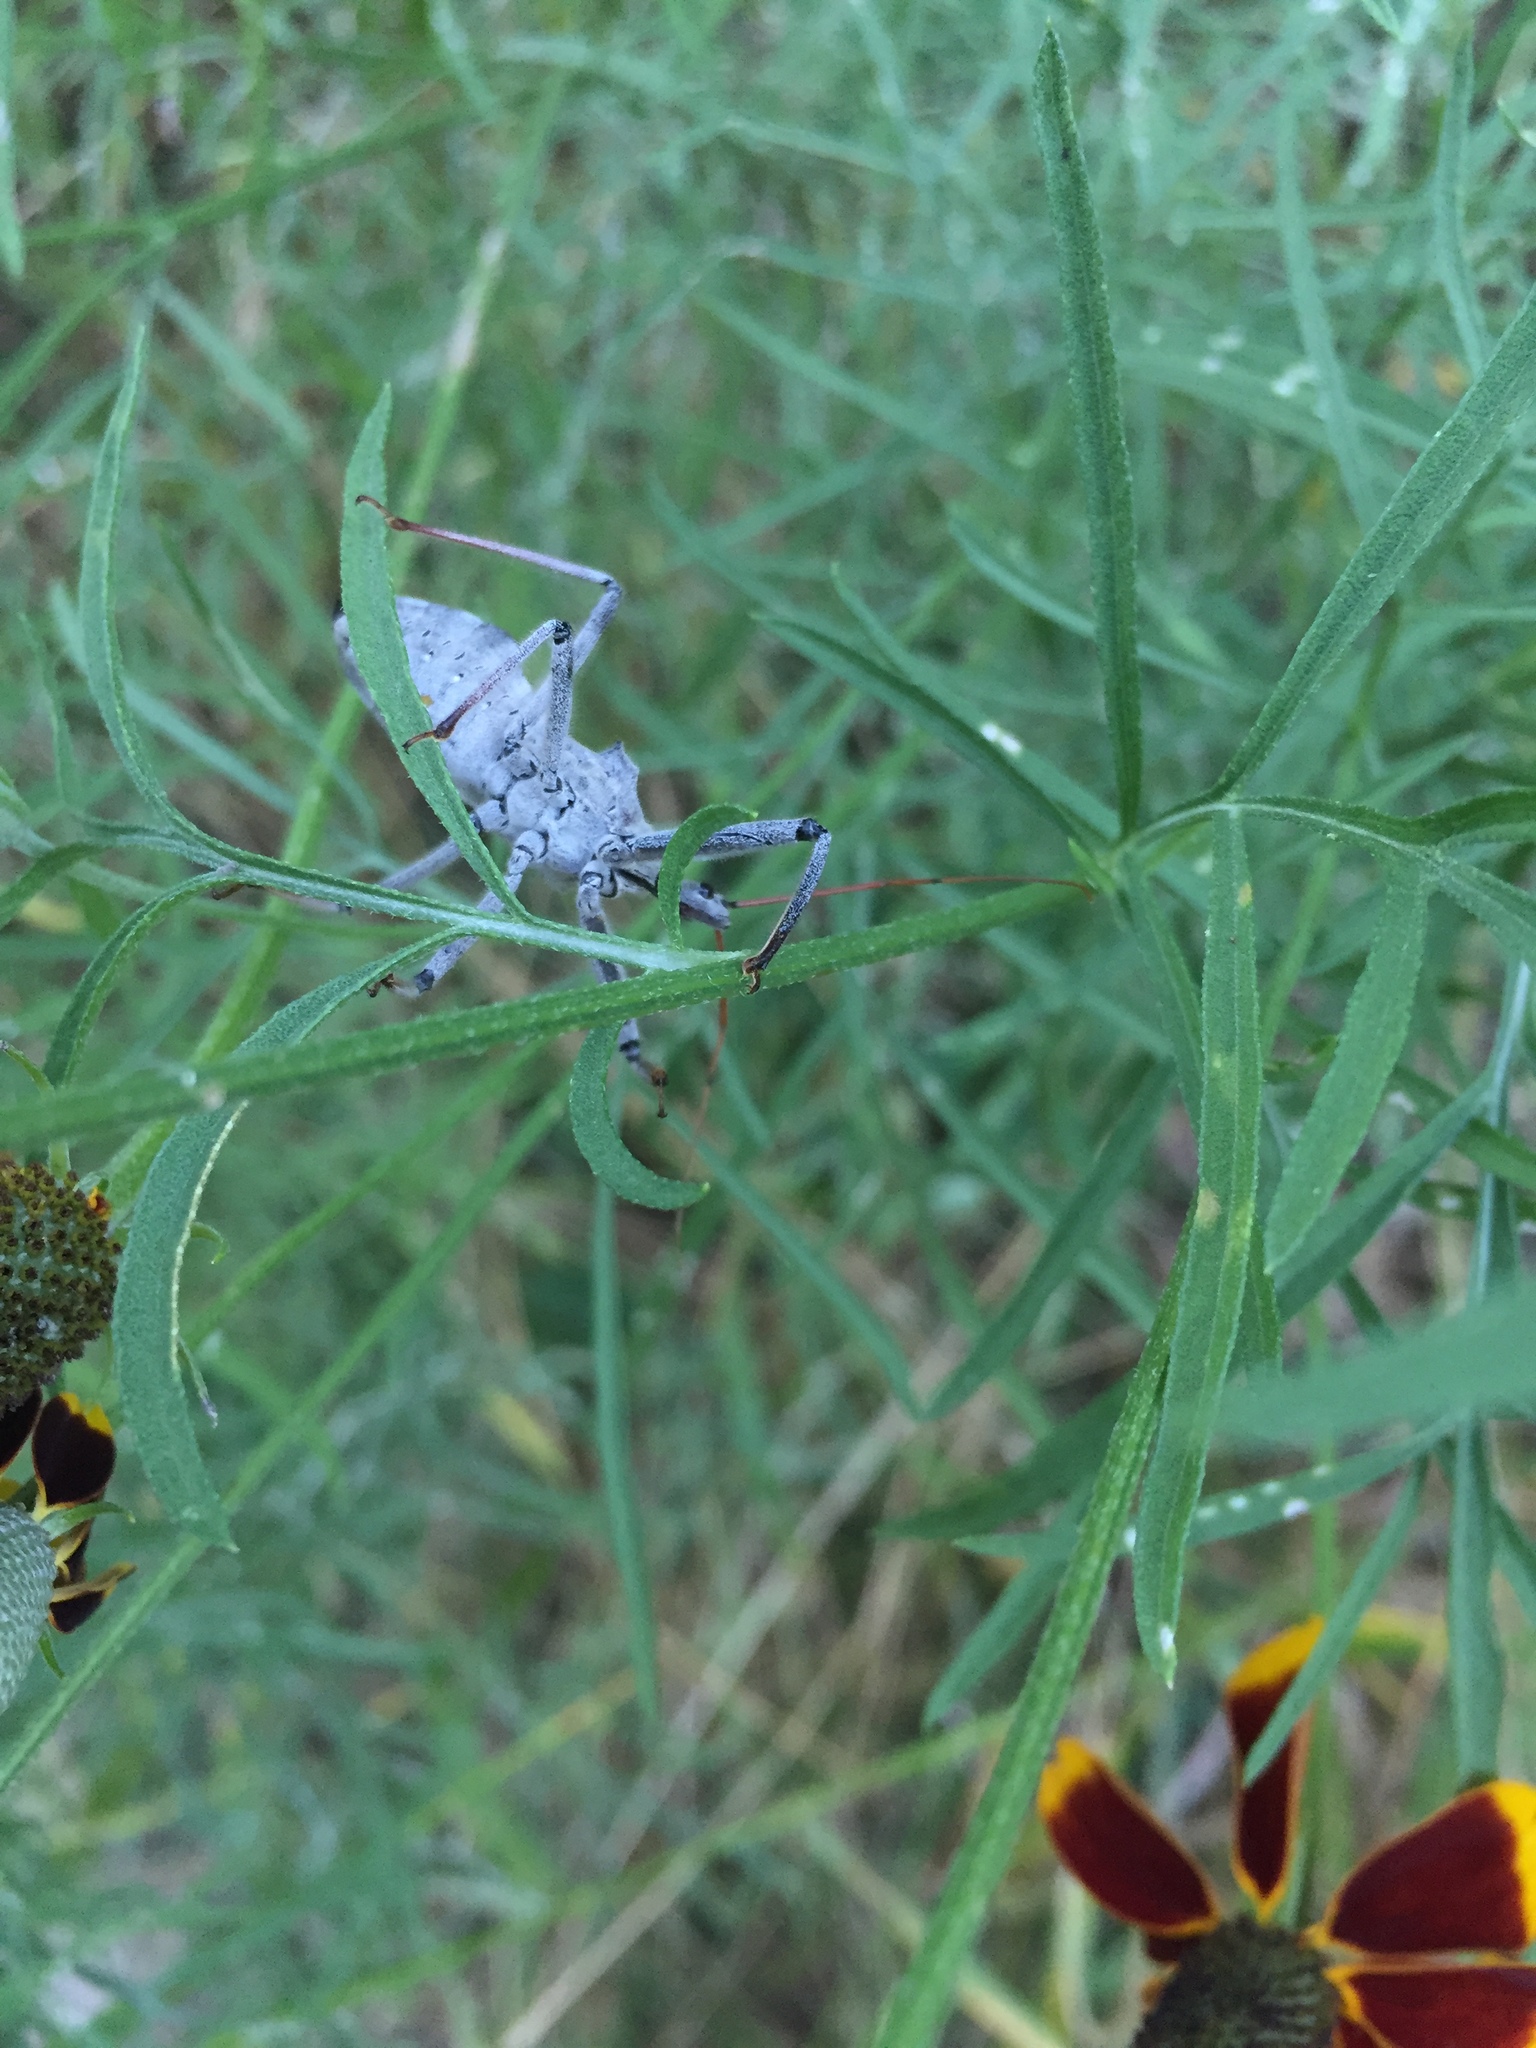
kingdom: Animalia
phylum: Arthropoda
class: Insecta
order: Hemiptera
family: Reduviidae
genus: Arilus
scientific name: Arilus cristatus
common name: North american wheel bug
